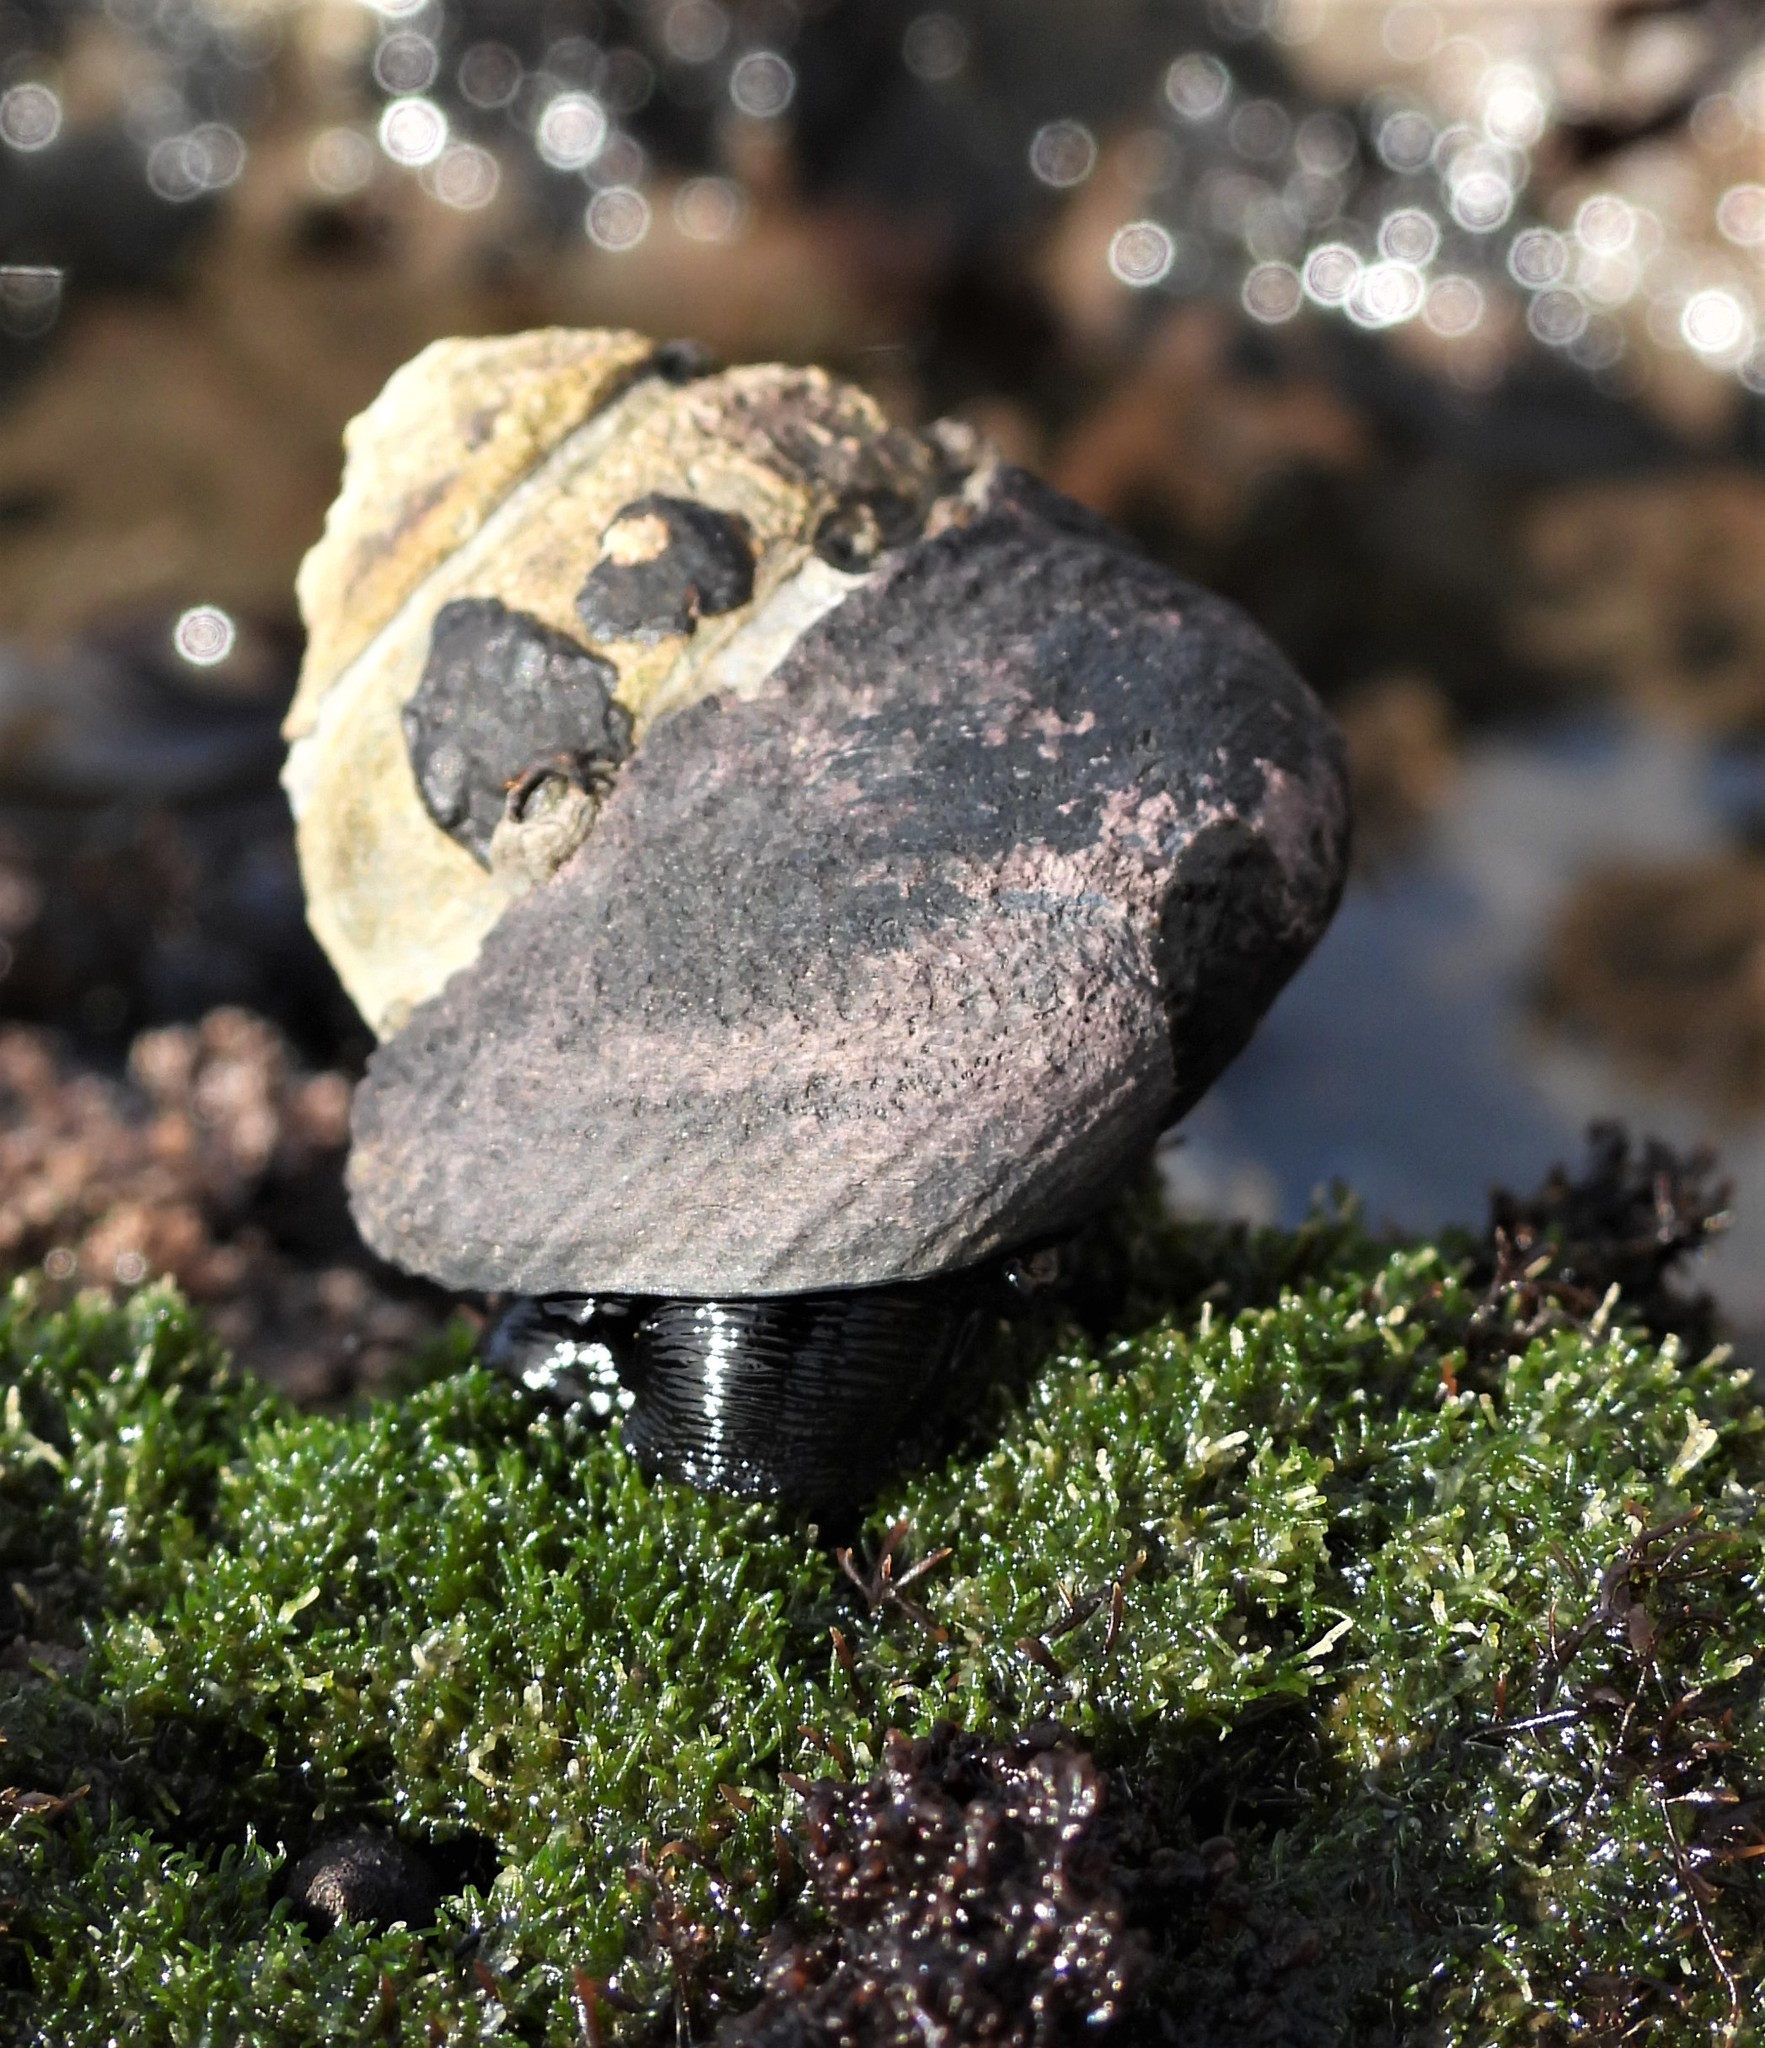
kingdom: Animalia
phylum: Mollusca
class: Gastropoda
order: Trochida
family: Tegulidae
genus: Tegula
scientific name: Tegula funebralis
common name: Black tegula
